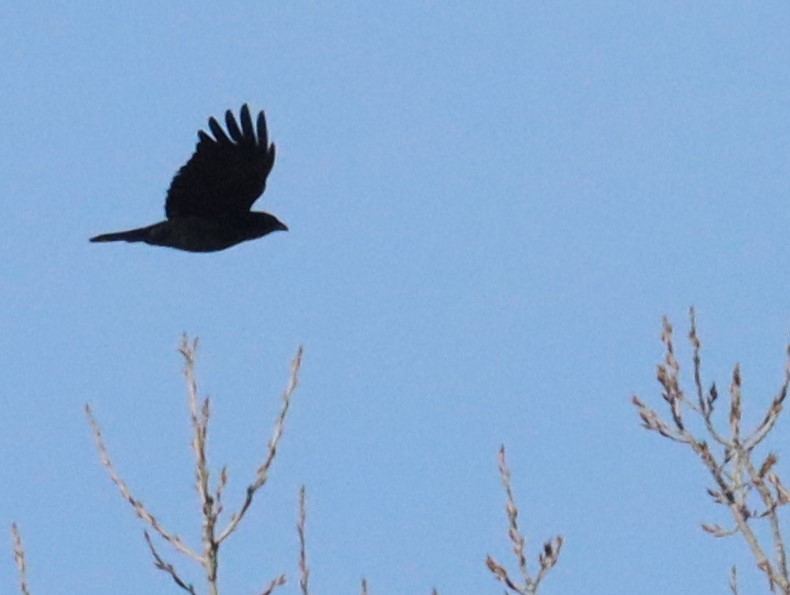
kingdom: Animalia
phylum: Chordata
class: Aves
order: Passeriformes
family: Corvidae
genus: Corvus
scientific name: Corvus brachyrhynchos
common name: American crow
